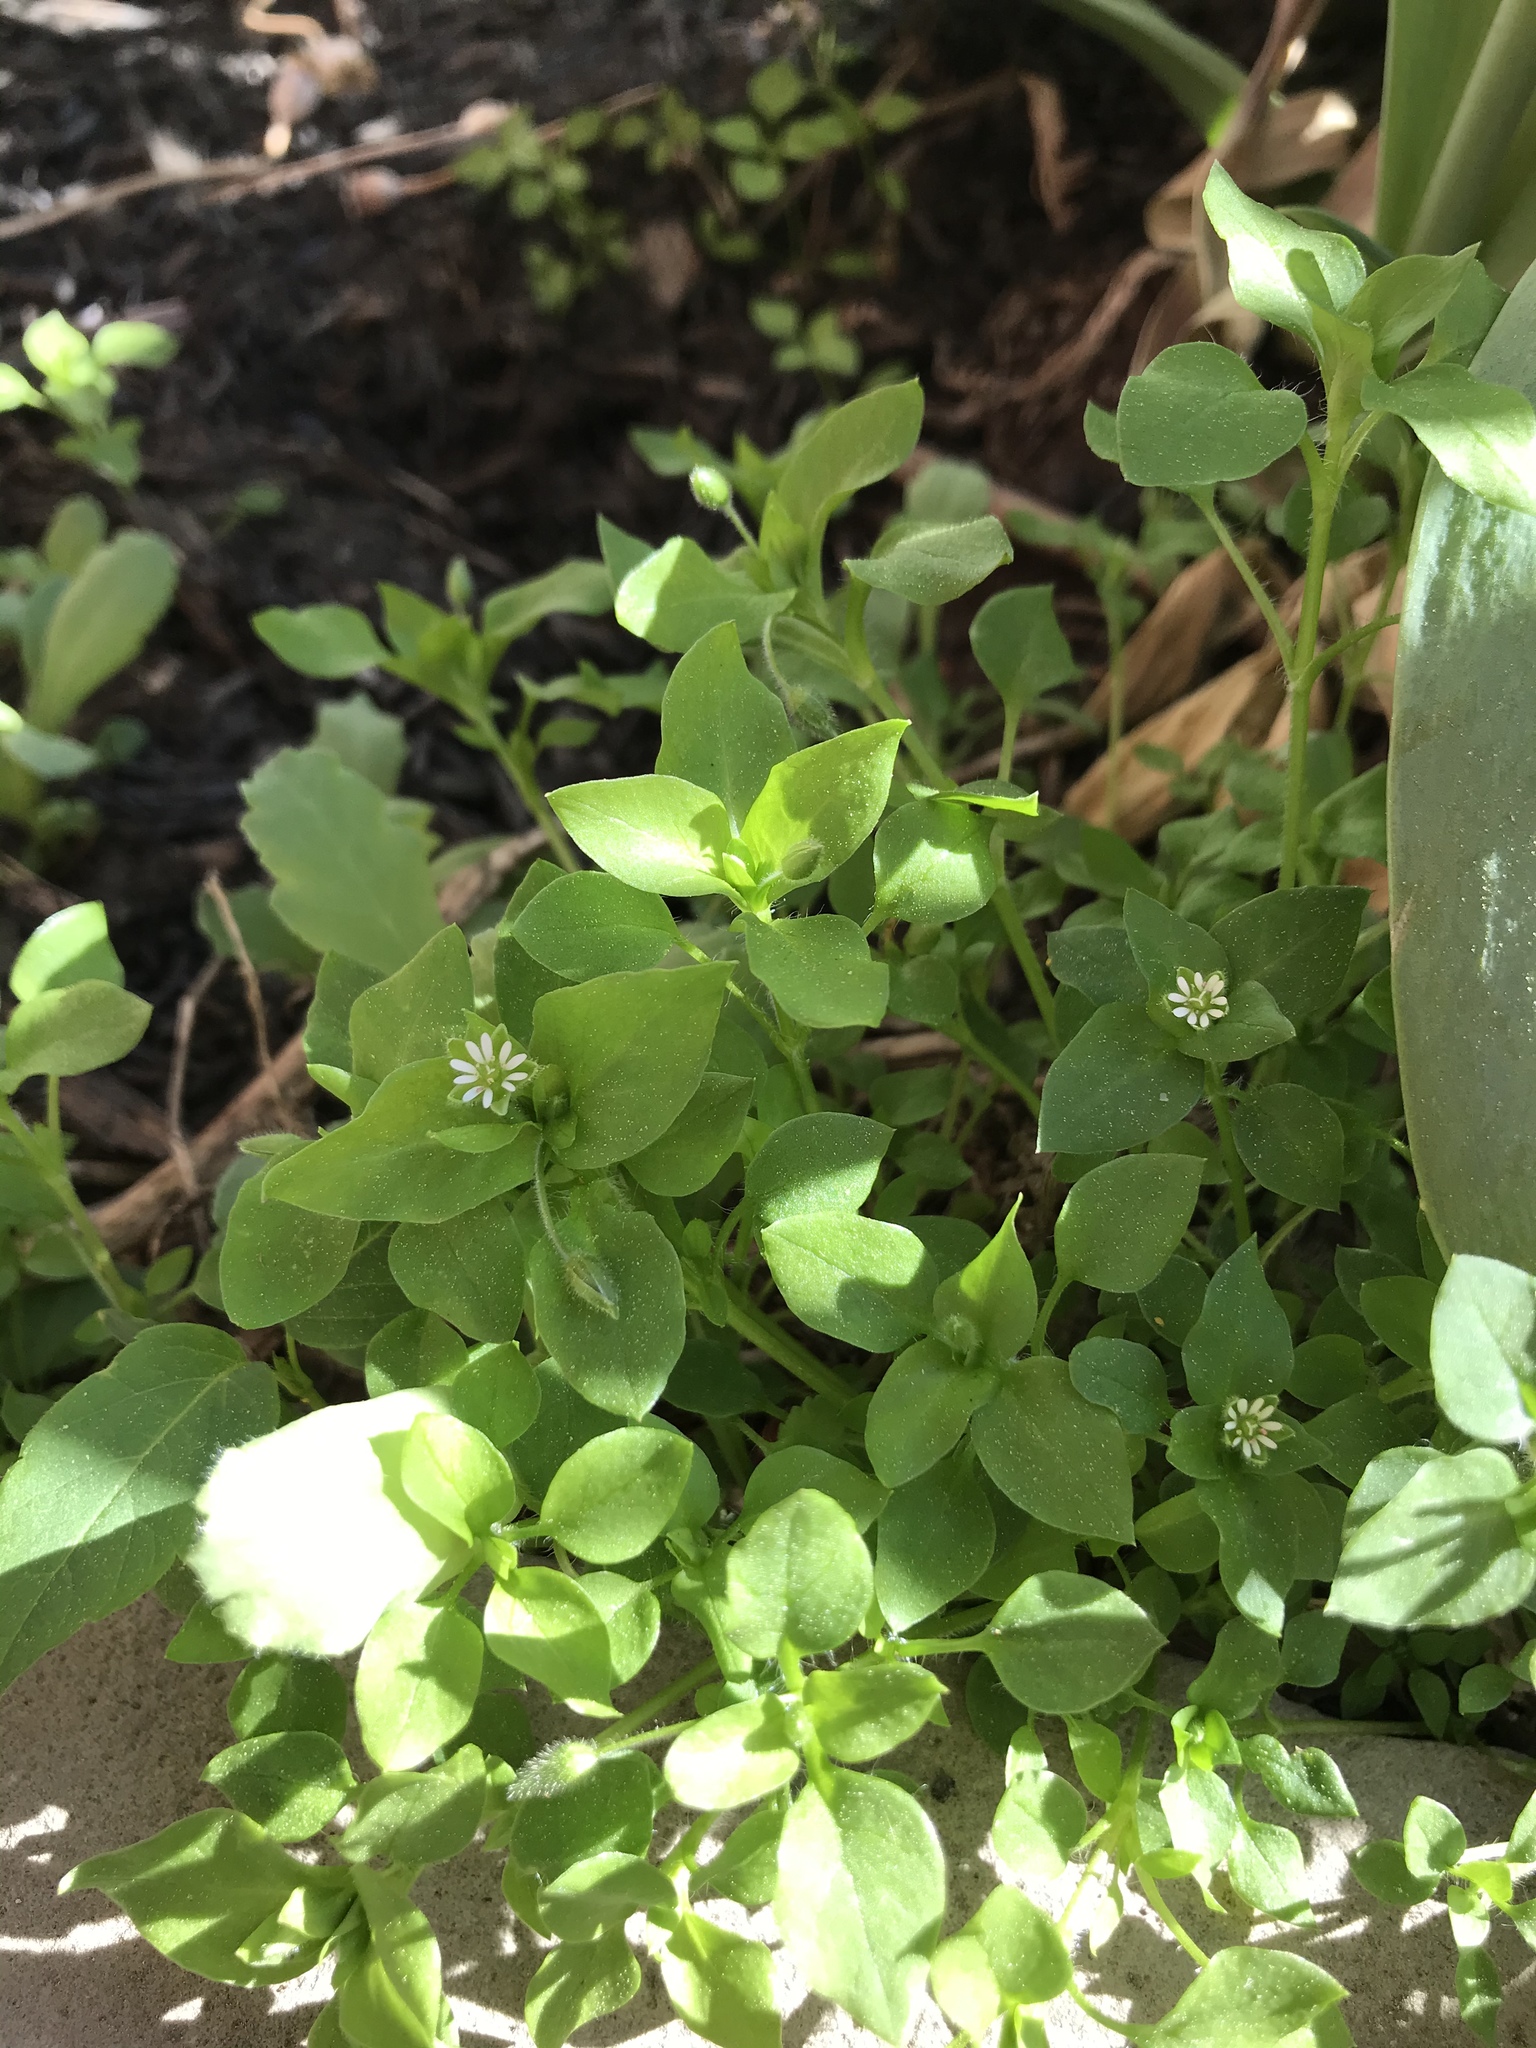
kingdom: Plantae
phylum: Tracheophyta
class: Magnoliopsida
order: Caryophyllales
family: Caryophyllaceae
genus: Stellaria
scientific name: Stellaria media
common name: Common chickweed
